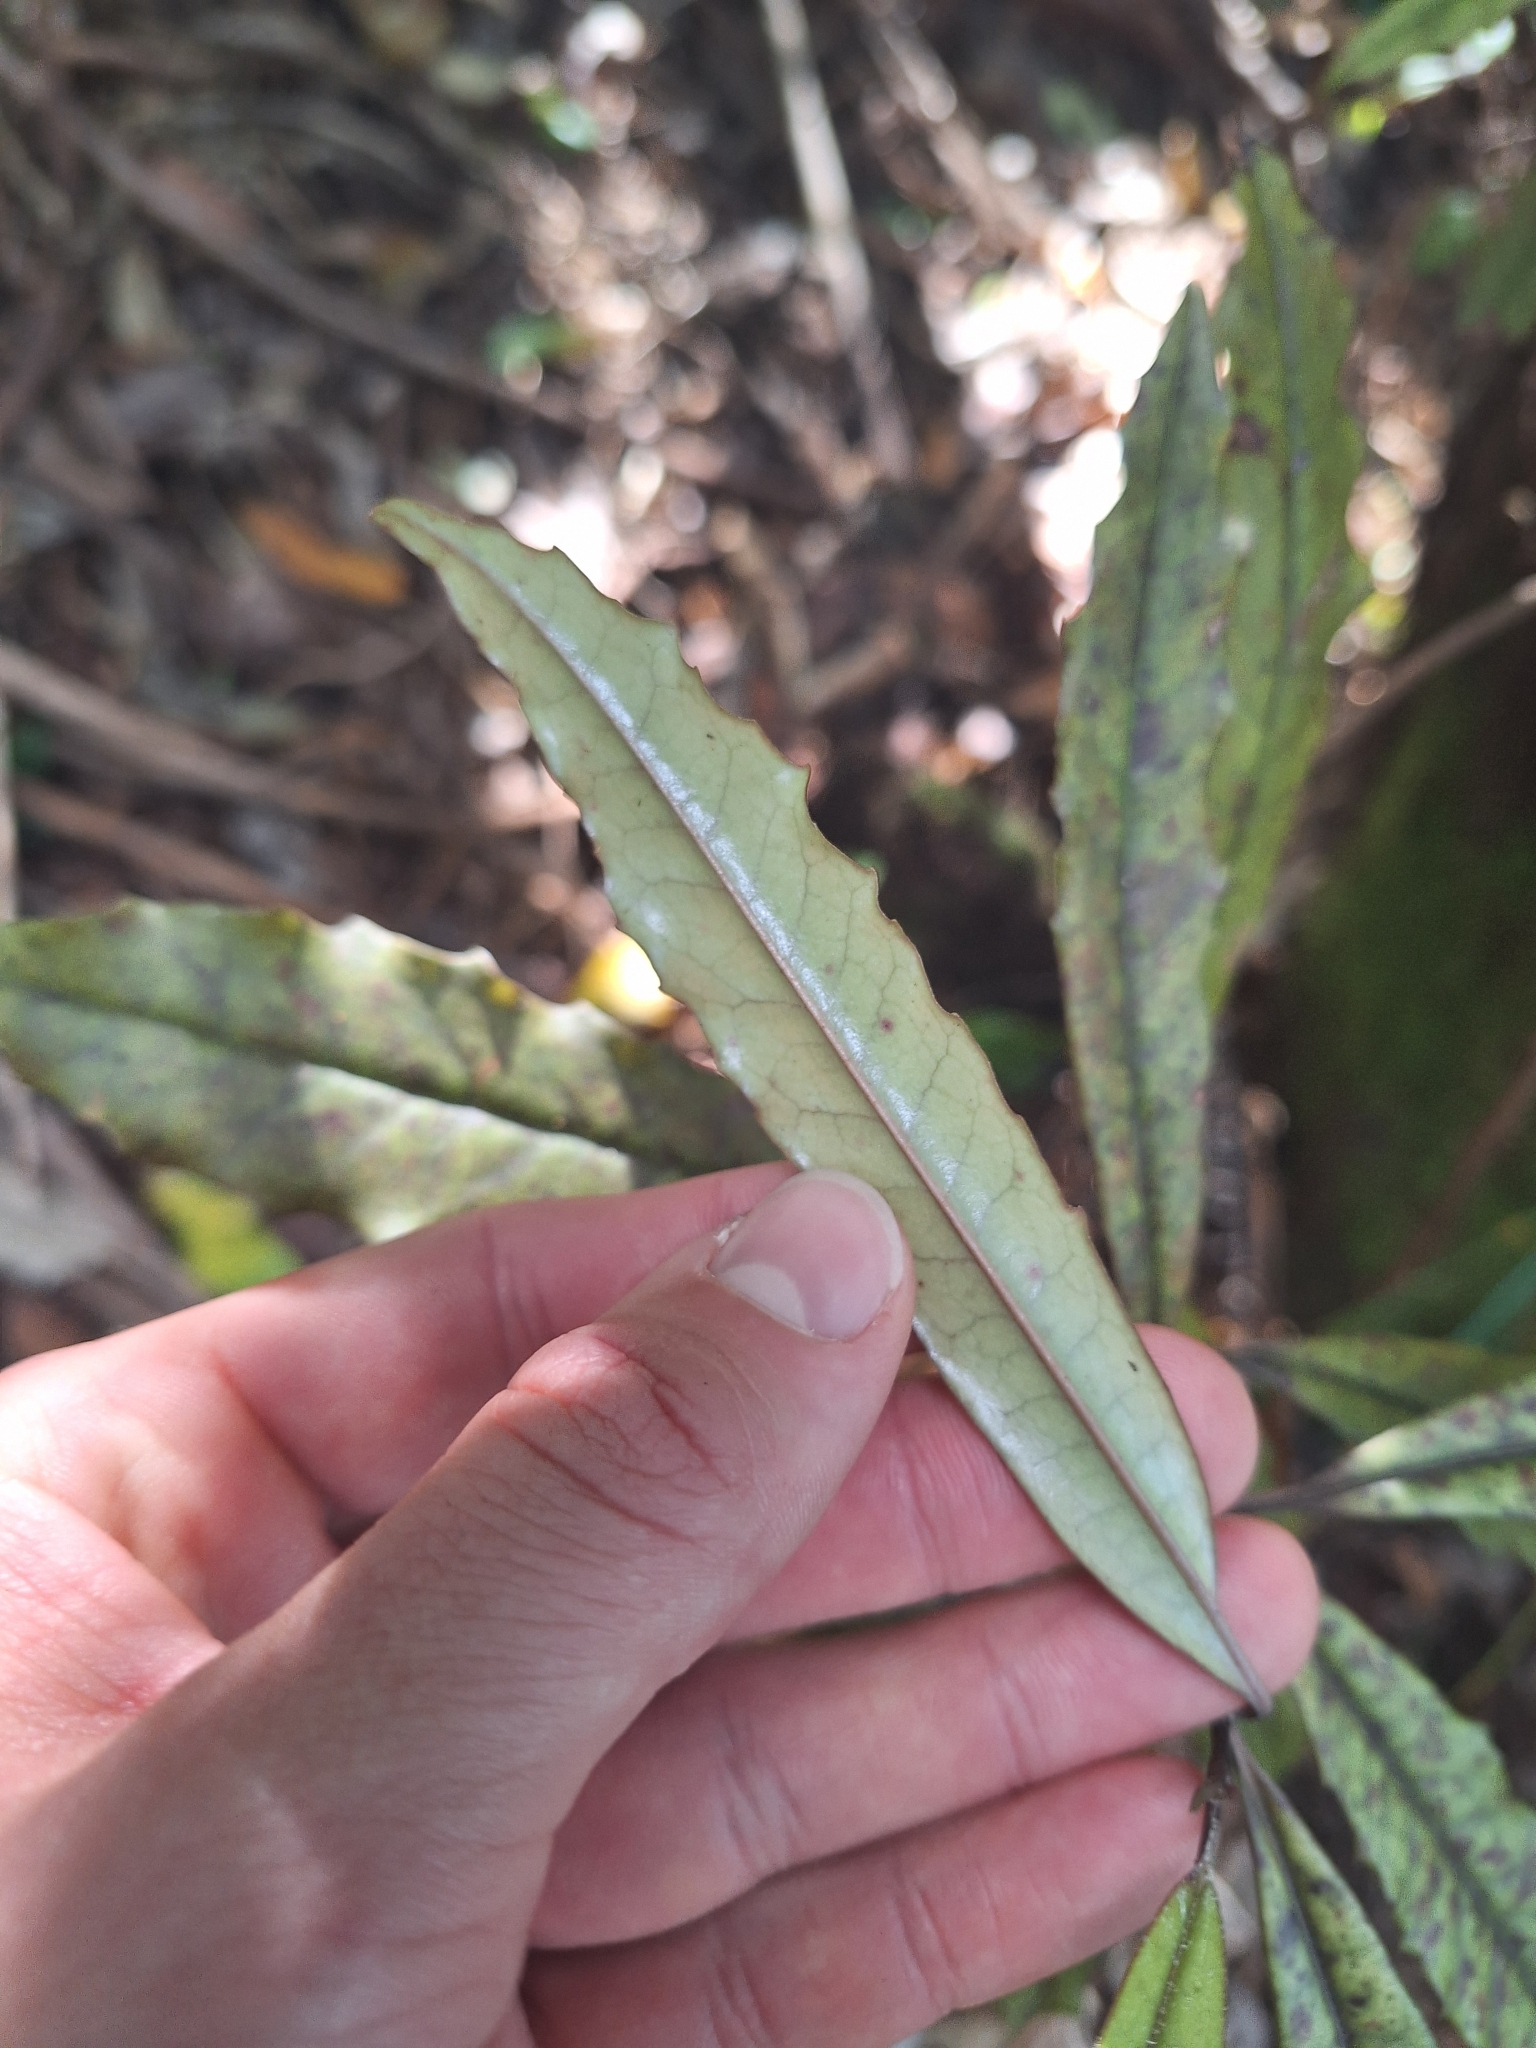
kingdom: Plantae
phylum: Tracheophyta
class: Magnoliopsida
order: Paracryphiales
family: Paracryphiaceae
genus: Quintinia
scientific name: Quintinia serrata
